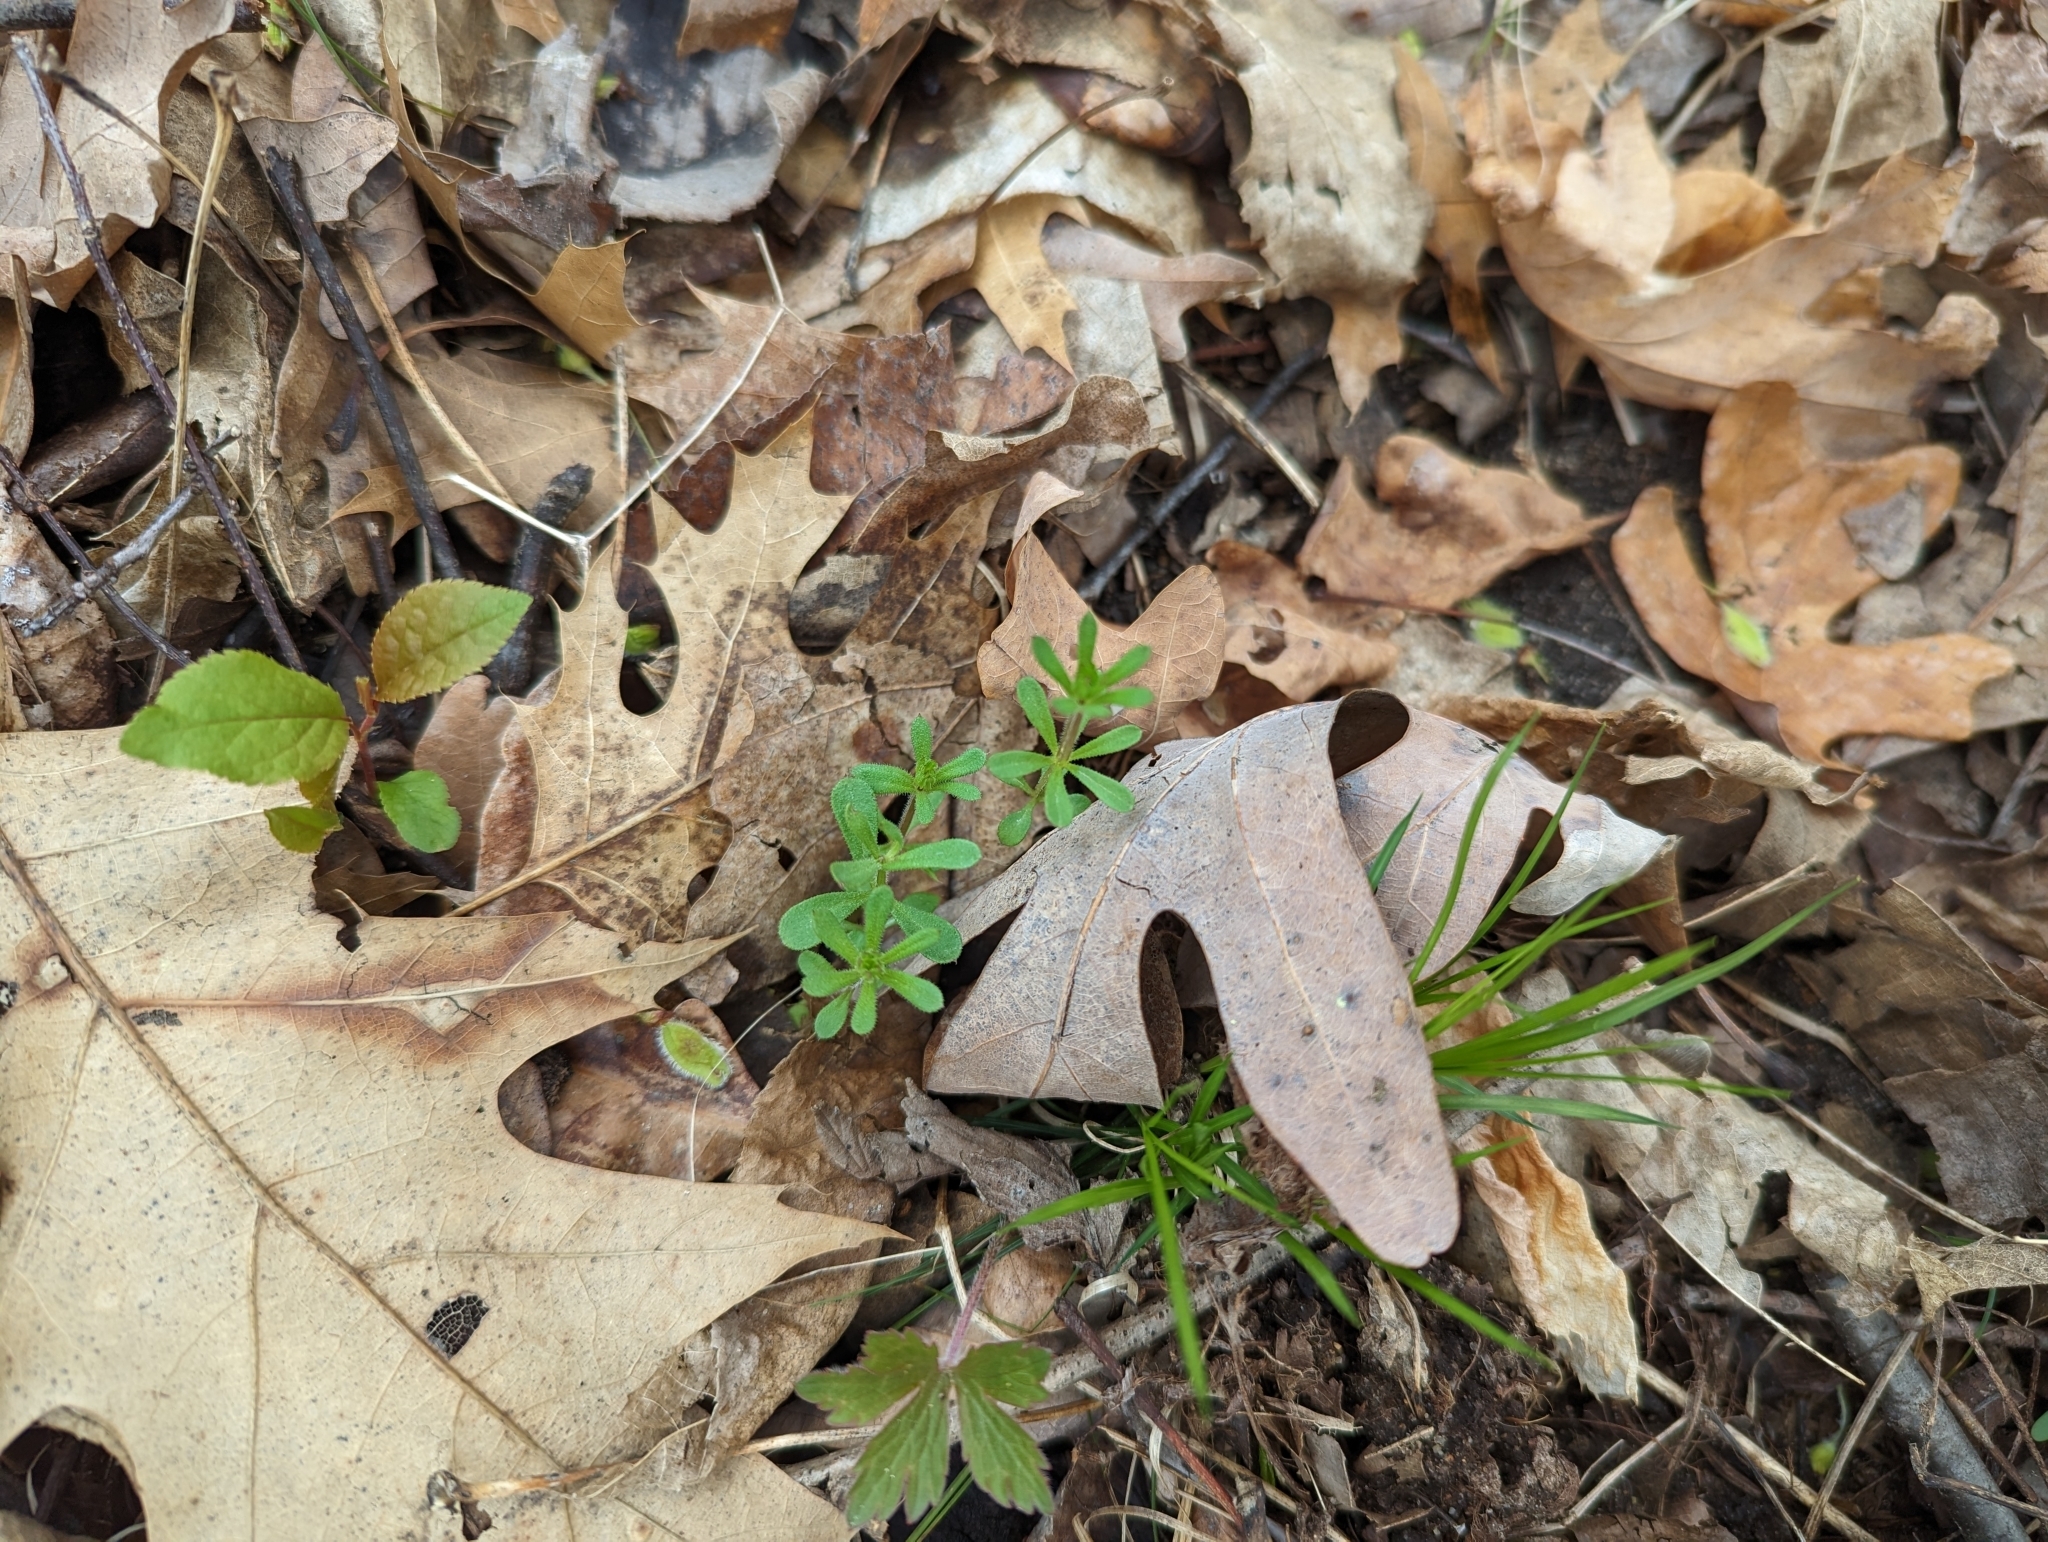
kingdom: Plantae
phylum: Tracheophyta
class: Magnoliopsida
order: Gentianales
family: Rubiaceae
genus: Galium
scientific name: Galium aparine
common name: Cleavers
